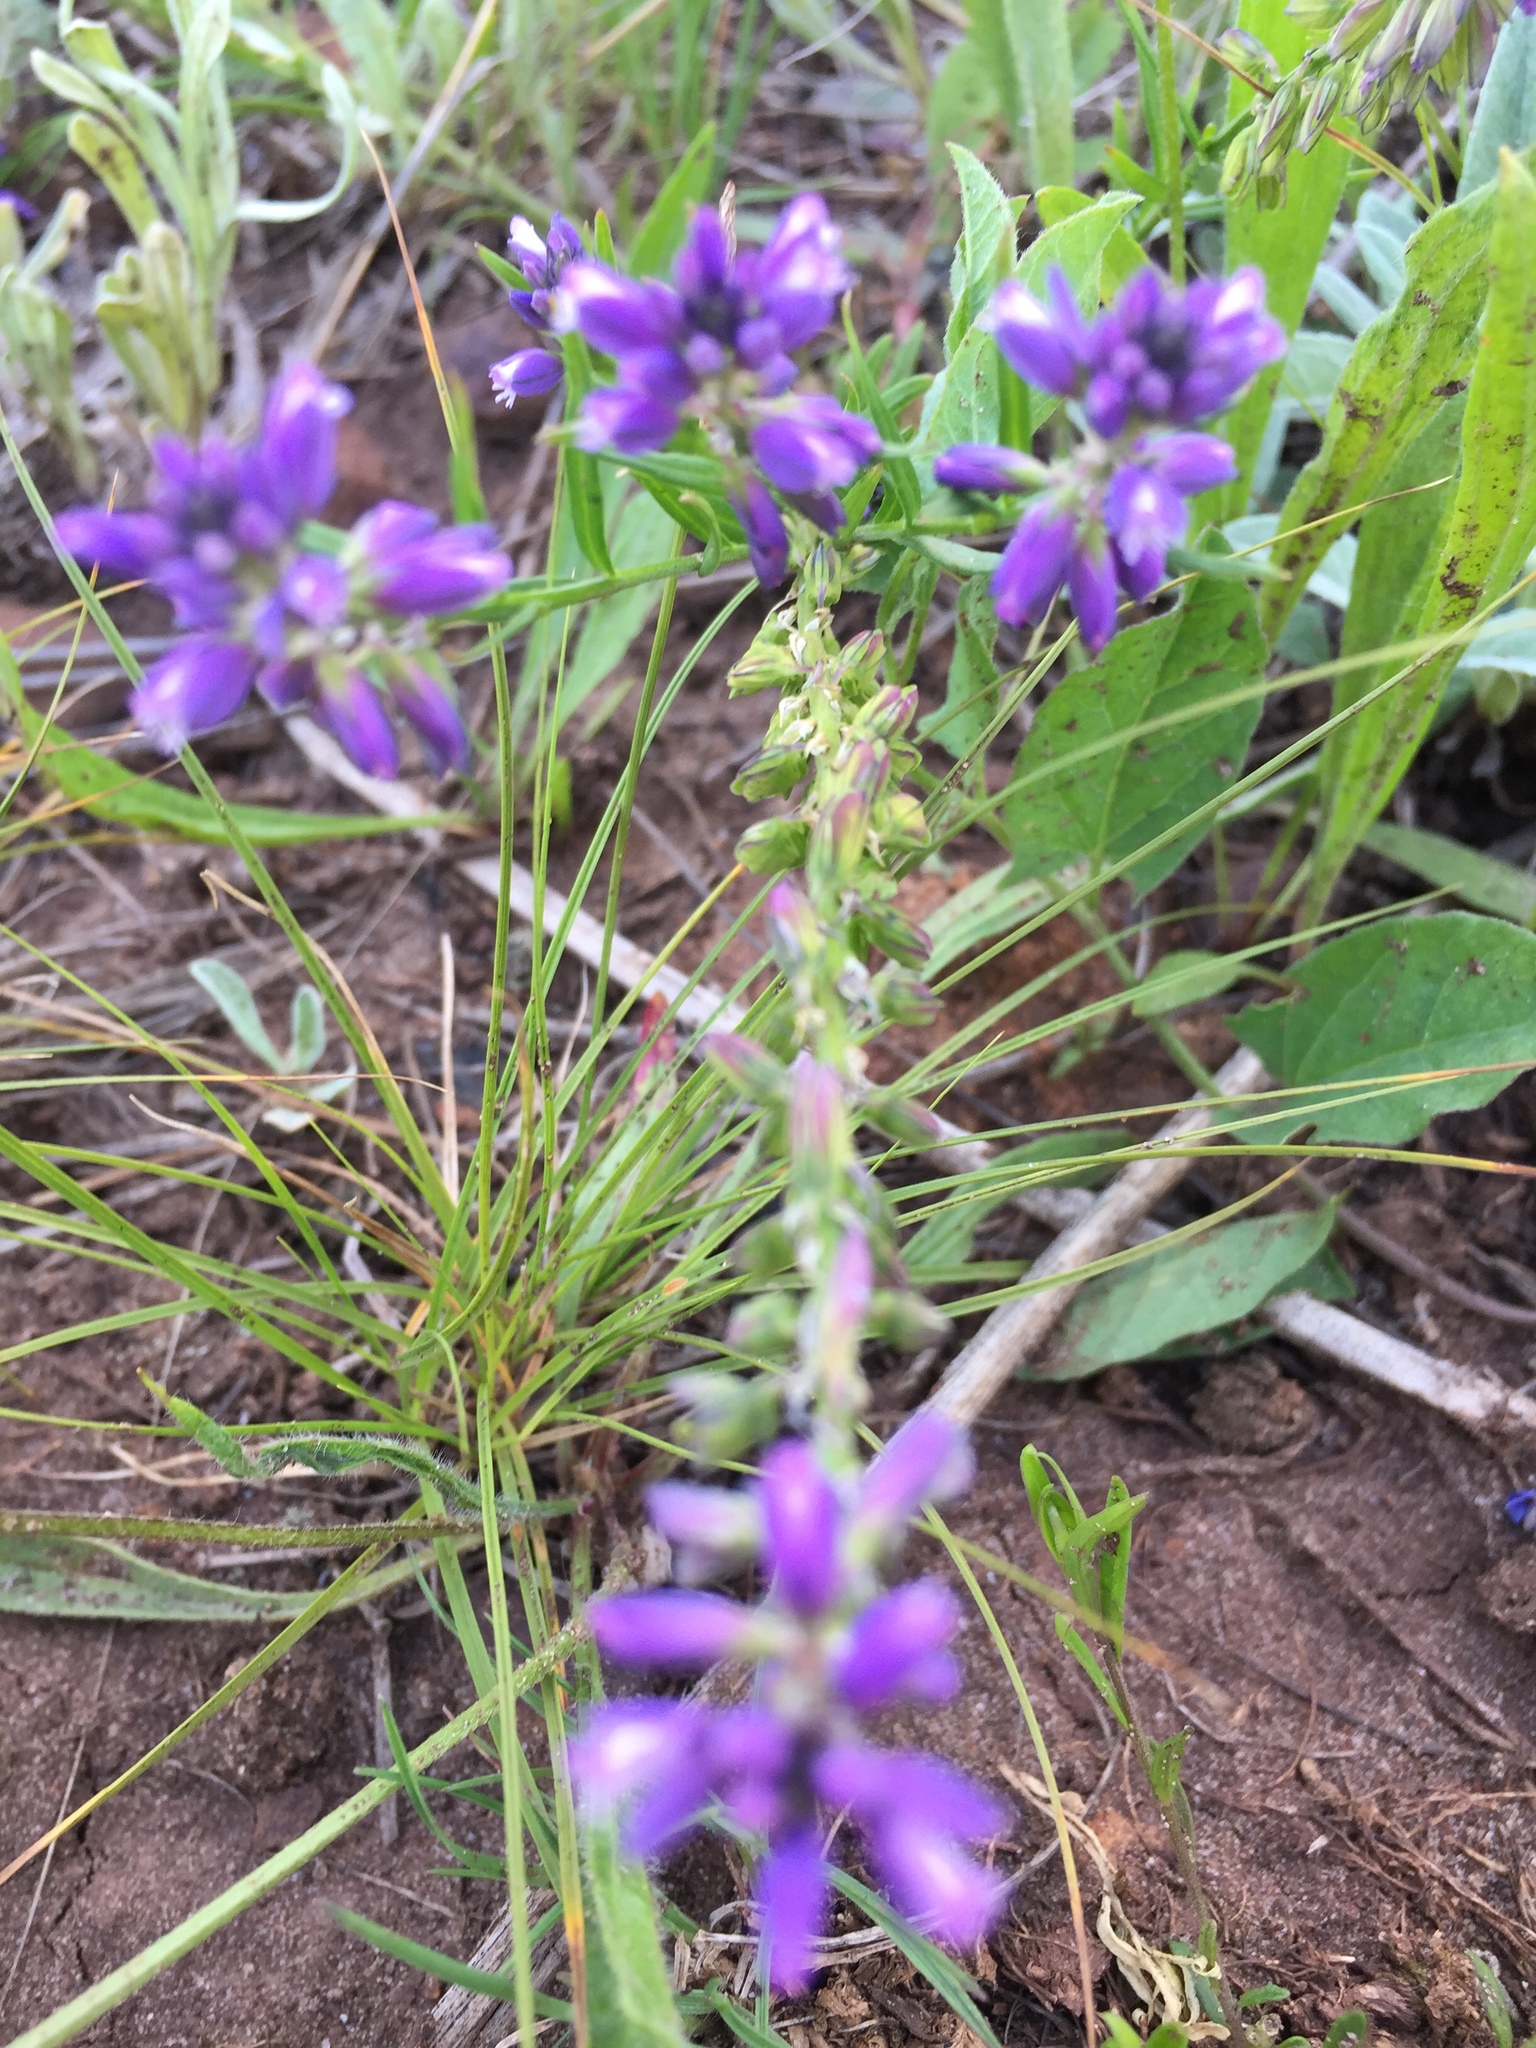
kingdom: Plantae
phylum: Tracheophyta
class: Magnoliopsida
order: Fabales
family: Polygalaceae
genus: Polygala
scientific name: Polygala comosa
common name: Tufted milkwort
